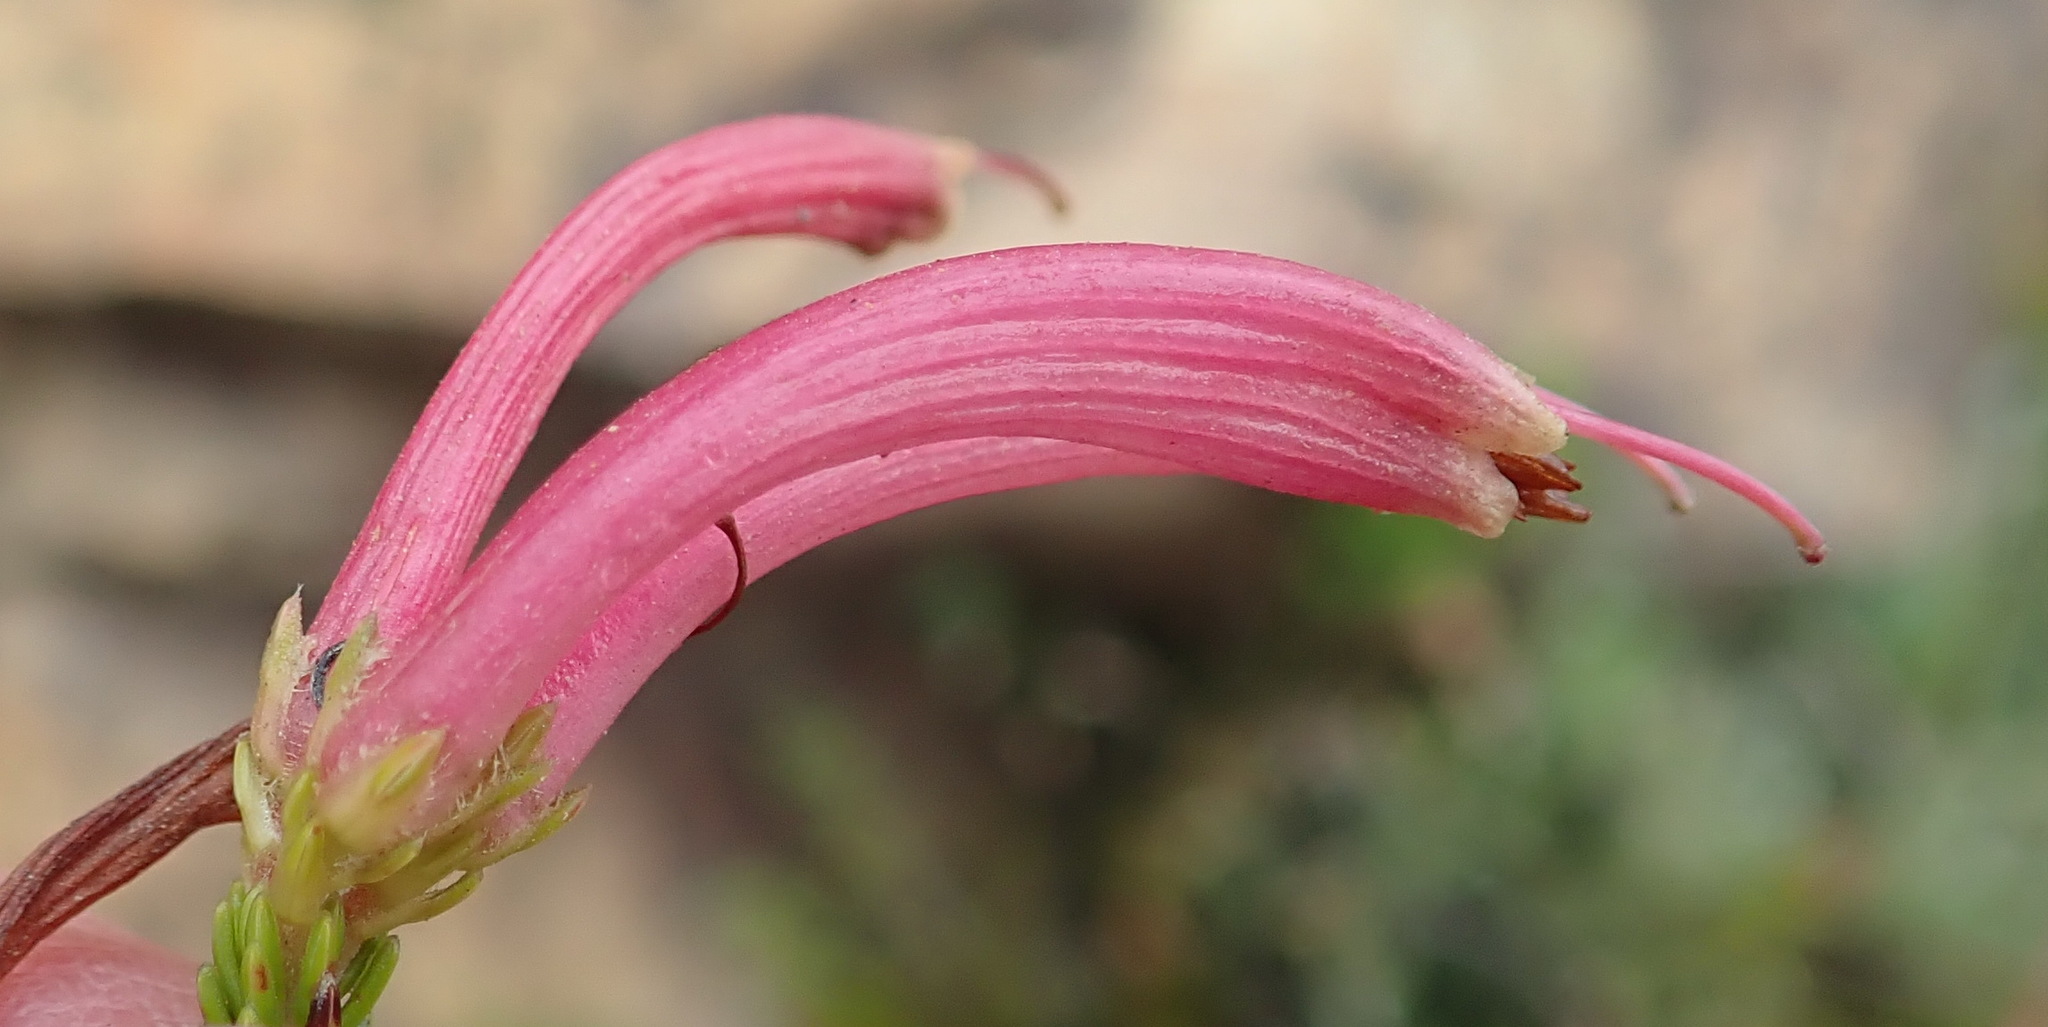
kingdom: Plantae
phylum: Tracheophyta
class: Magnoliopsida
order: Ericales
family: Ericaceae
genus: Erica
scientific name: Erica discolor
